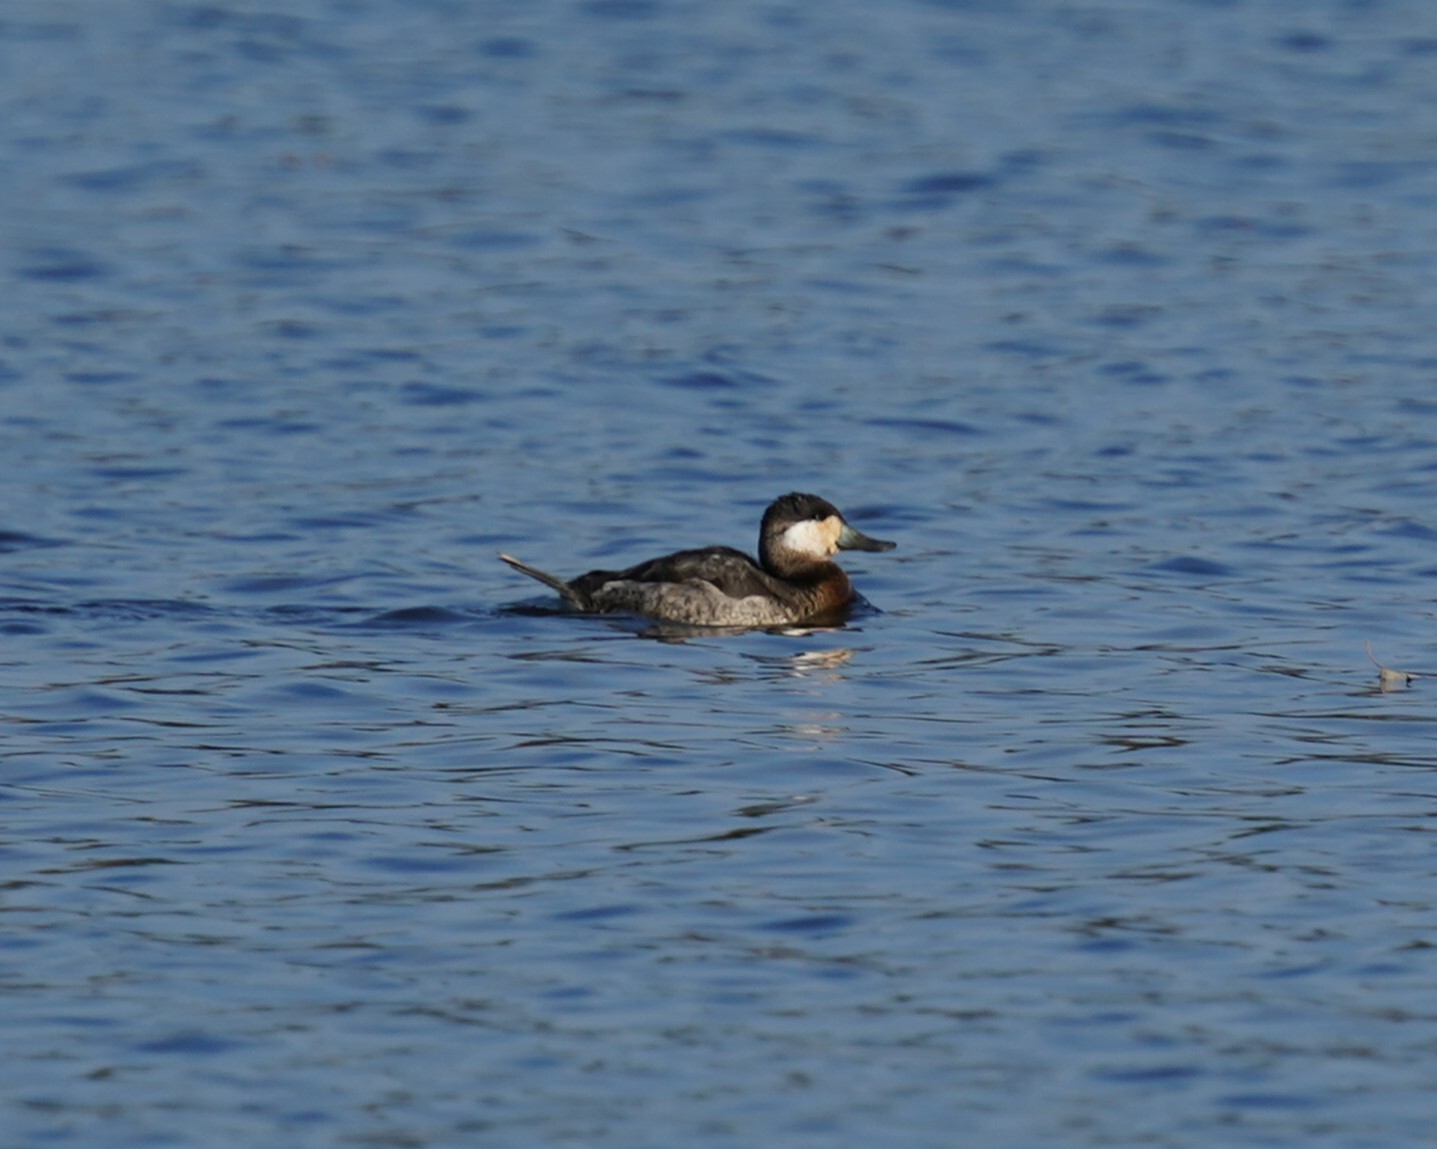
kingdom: Animalia
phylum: Chordata
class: Aves
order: Anseriformes
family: Anatidae
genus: Oxyura
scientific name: Oxyura jamaicensis
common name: Ruddy duck
